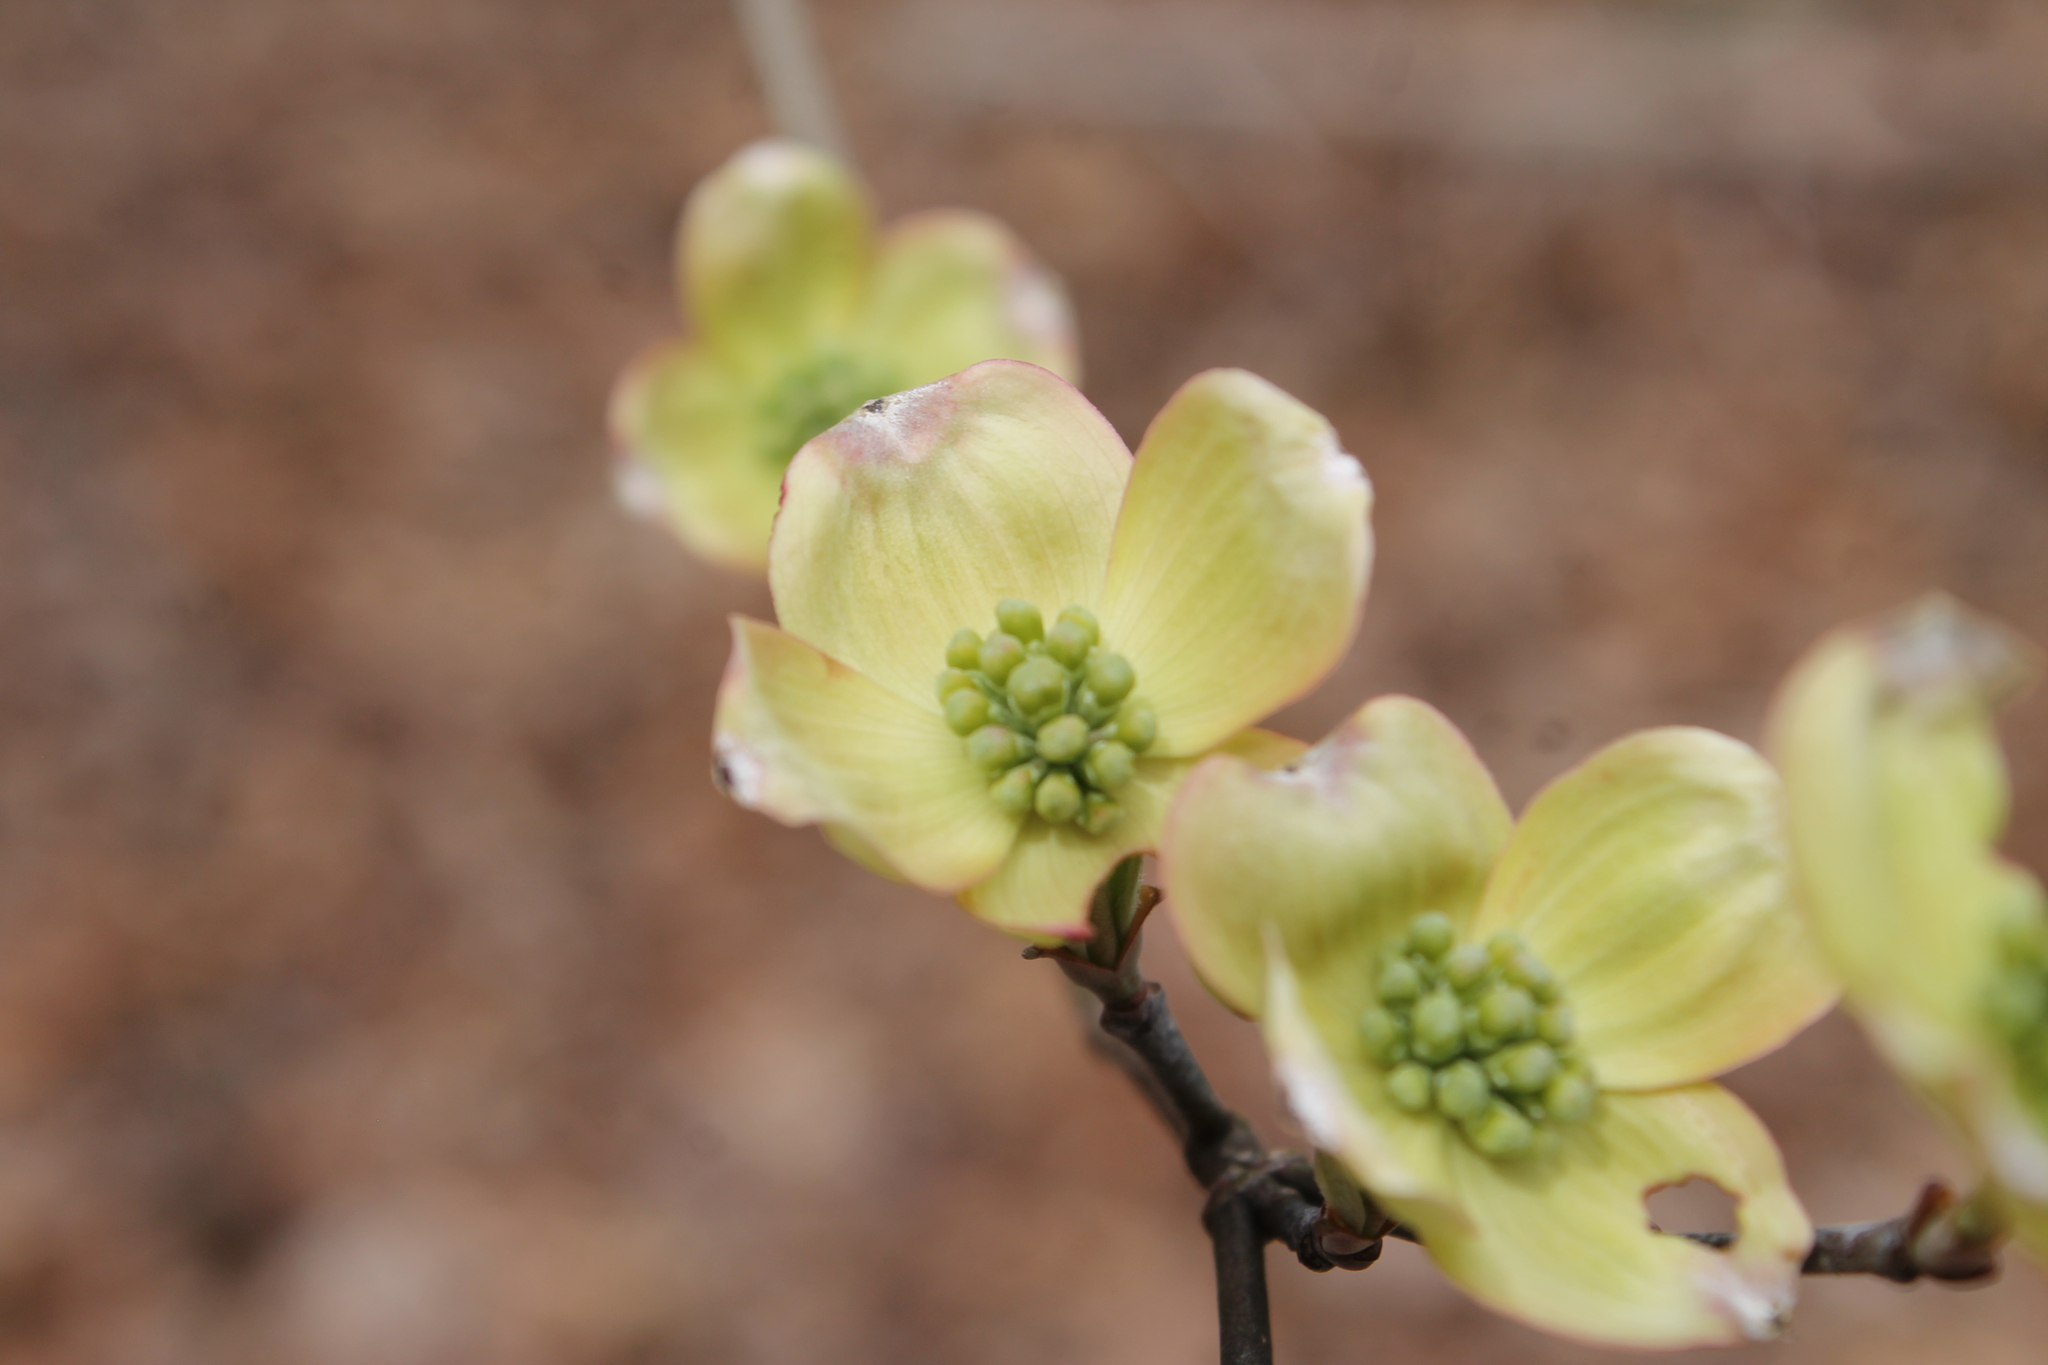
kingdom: Plantae
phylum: Tracheophyta
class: Magnoliopsida
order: Cornales
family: Cornaceae
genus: Cornus
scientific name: Cornus florida
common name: Flowering dogwood
